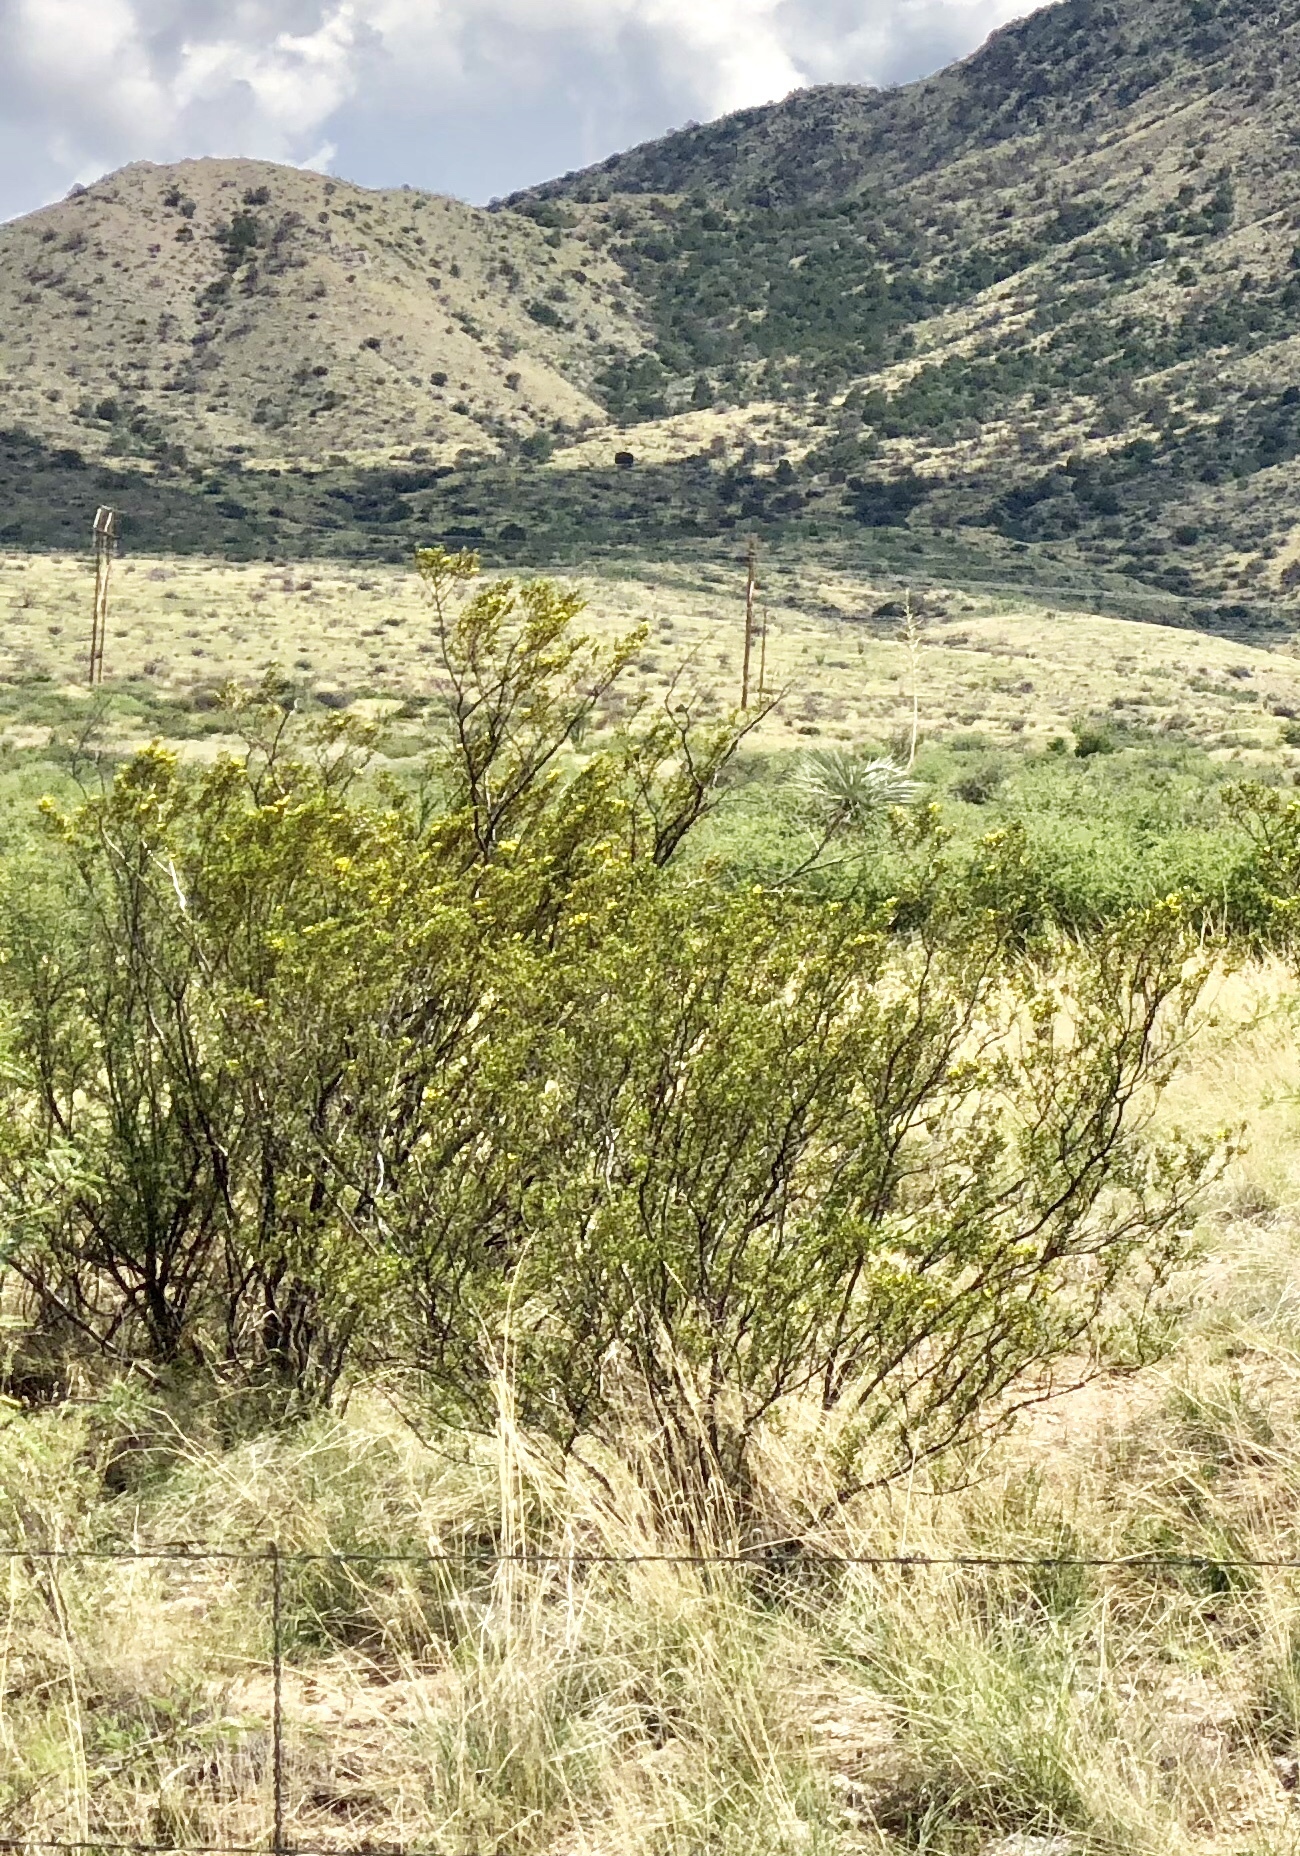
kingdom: Plantae
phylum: Tracheophyta
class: Magnoliopsida
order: Zygophyllales
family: Zygophyllaceae
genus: Larrea
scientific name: Larrea tridentata
